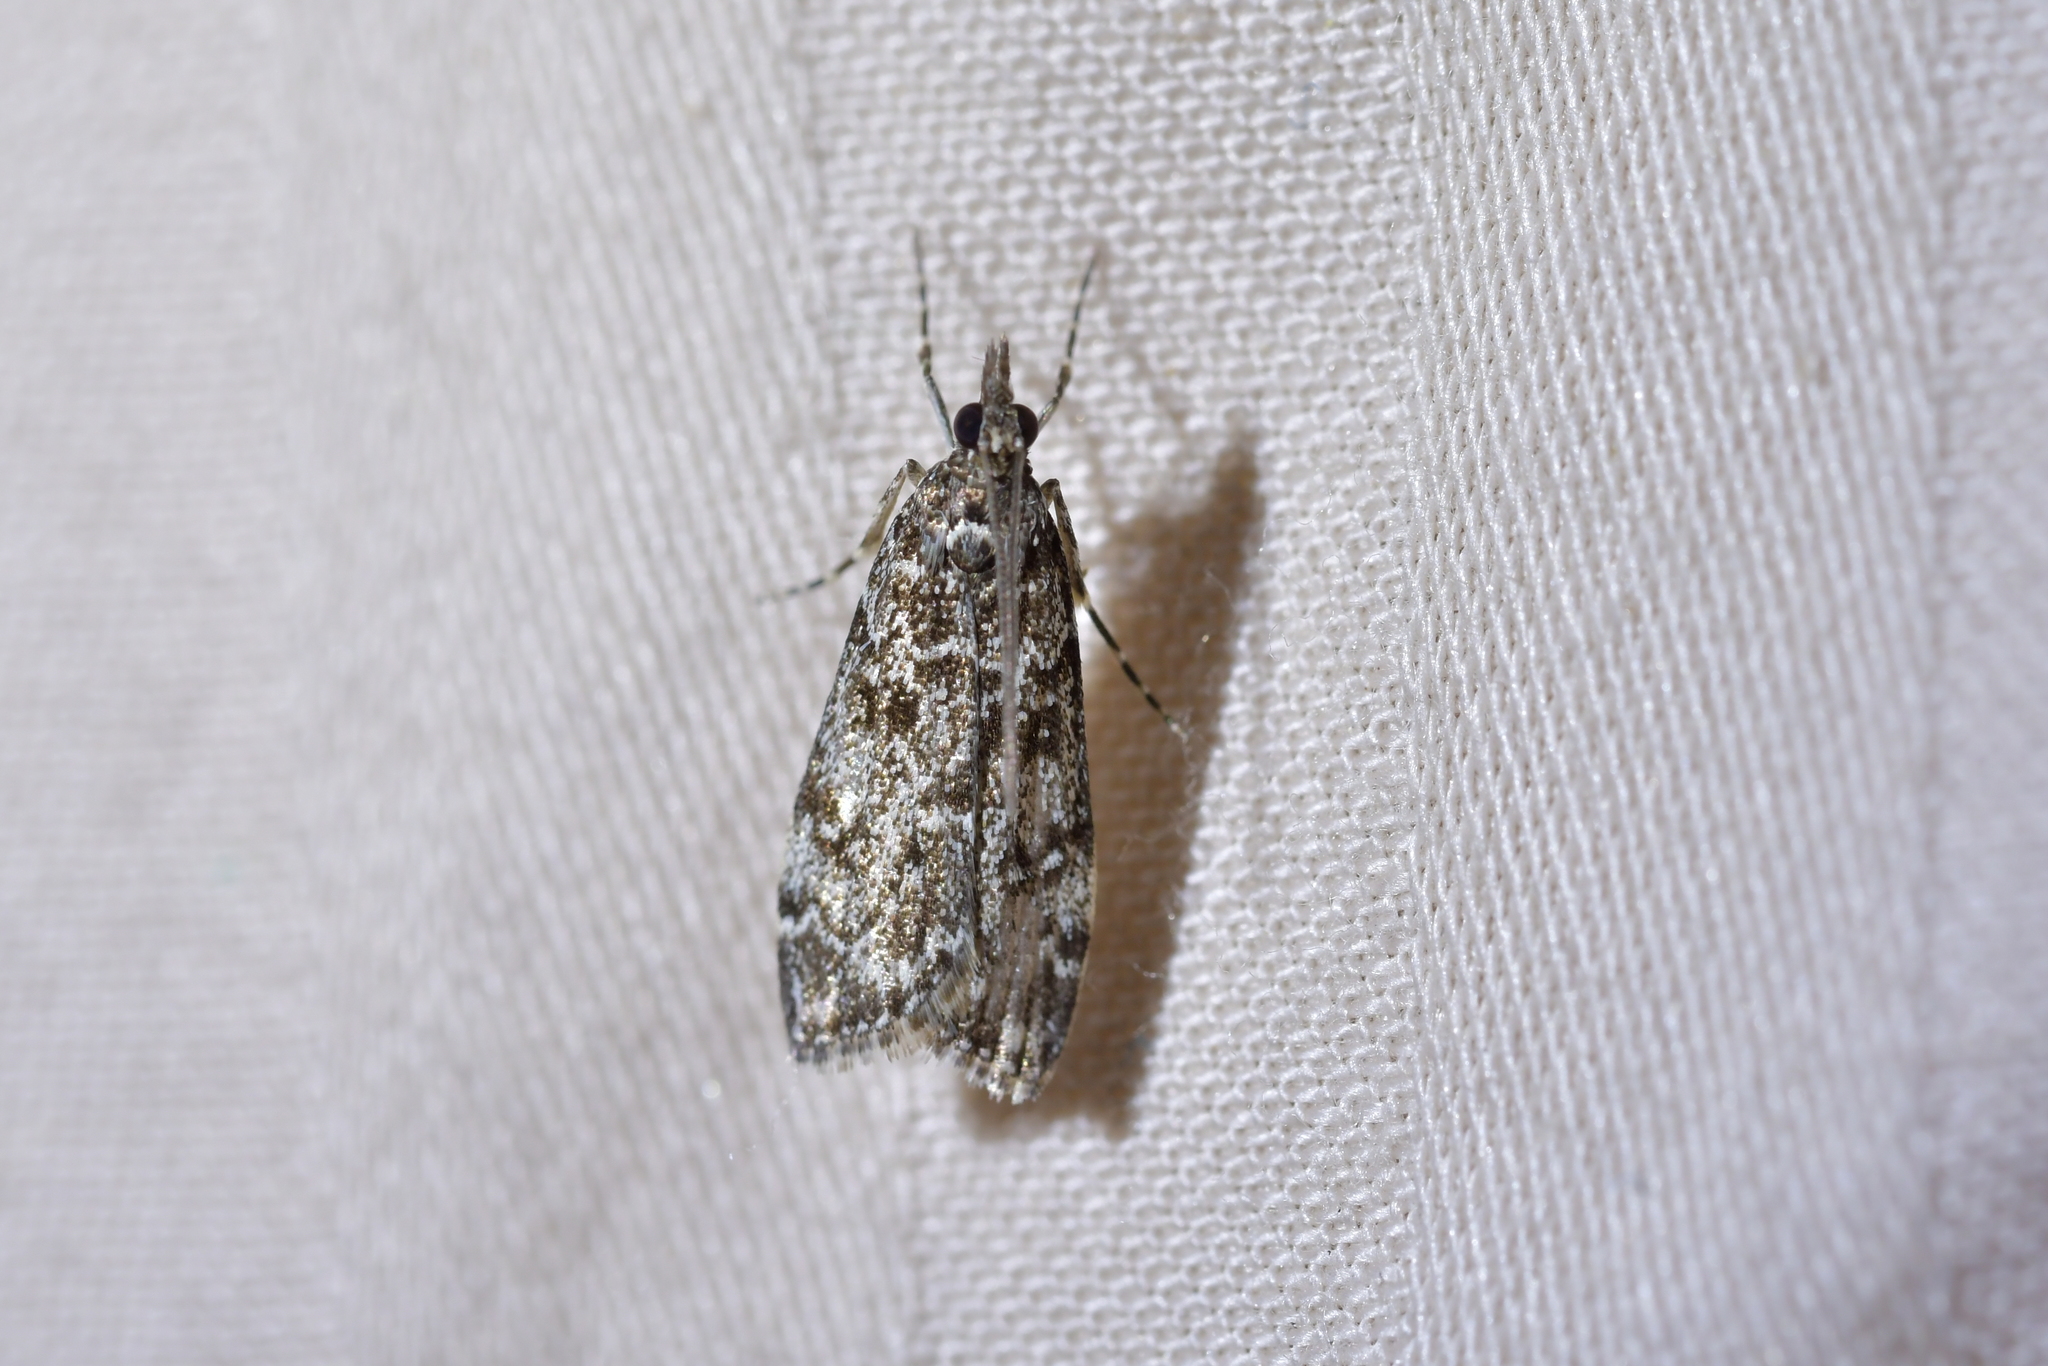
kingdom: Animalia
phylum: Arthropoda
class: Insecta
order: Lepidoptera
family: Crambidae
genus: Eudonia
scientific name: Eudonia philerga
